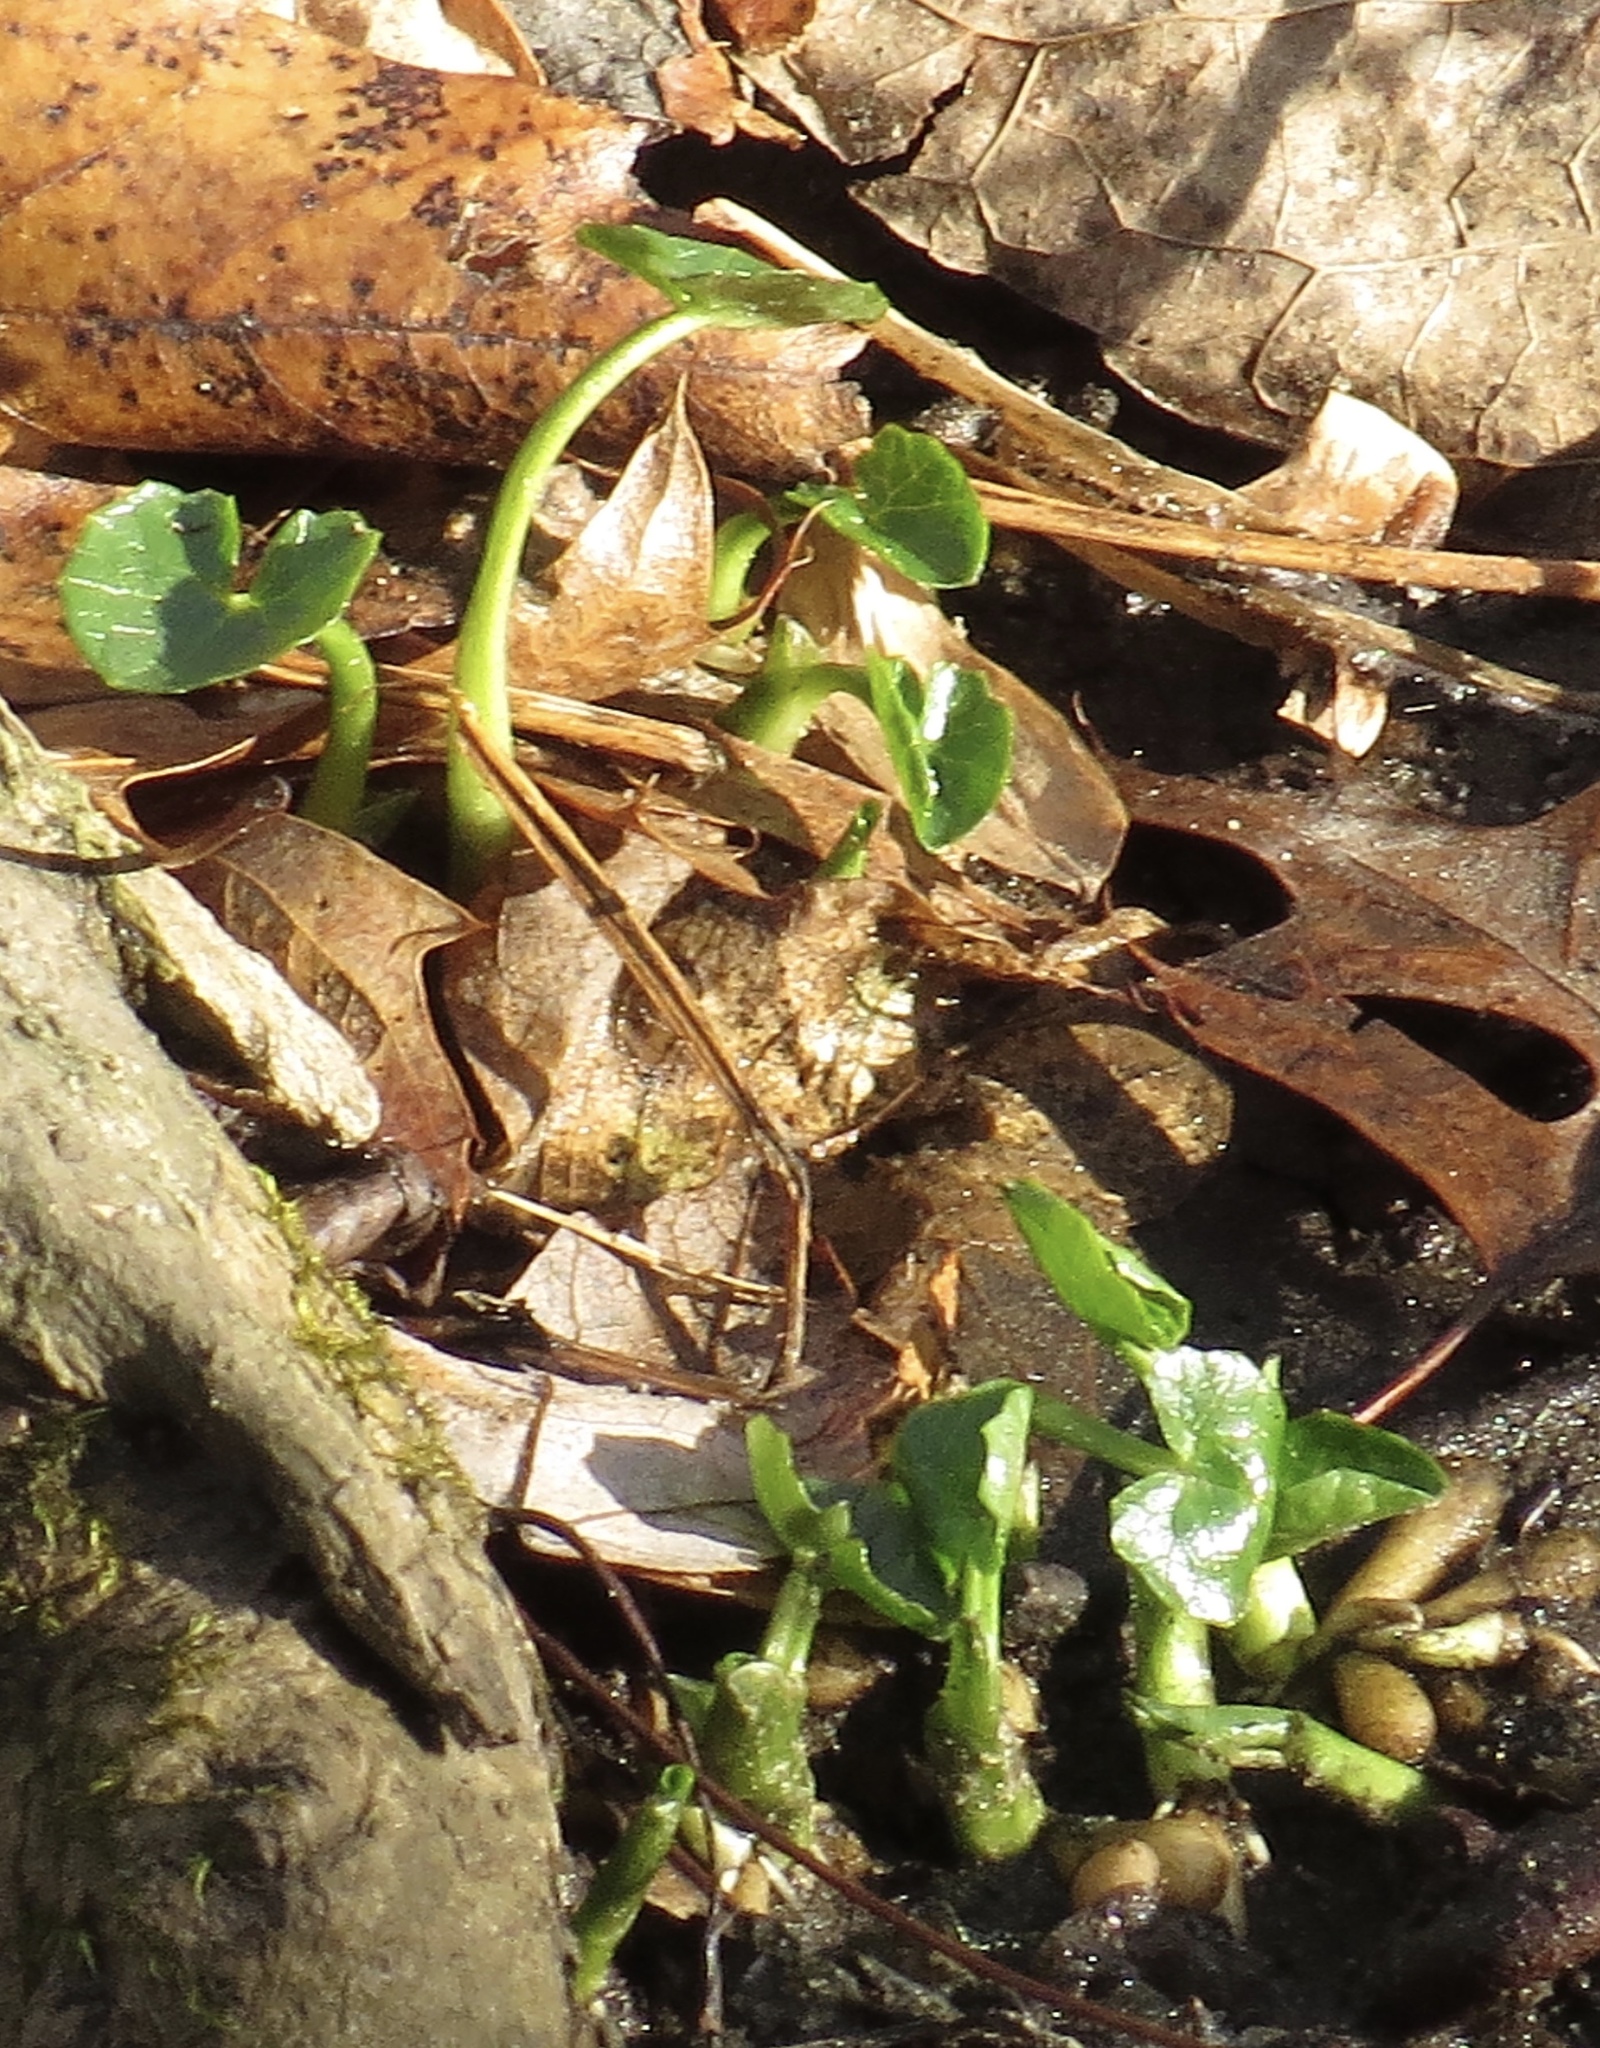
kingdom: Plantae
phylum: Tracheophyta
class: Magnoliopsida
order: Ranunculales
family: Ranunculaceae
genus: Ficaria
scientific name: Ficaria verna
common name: Lesser celandine
